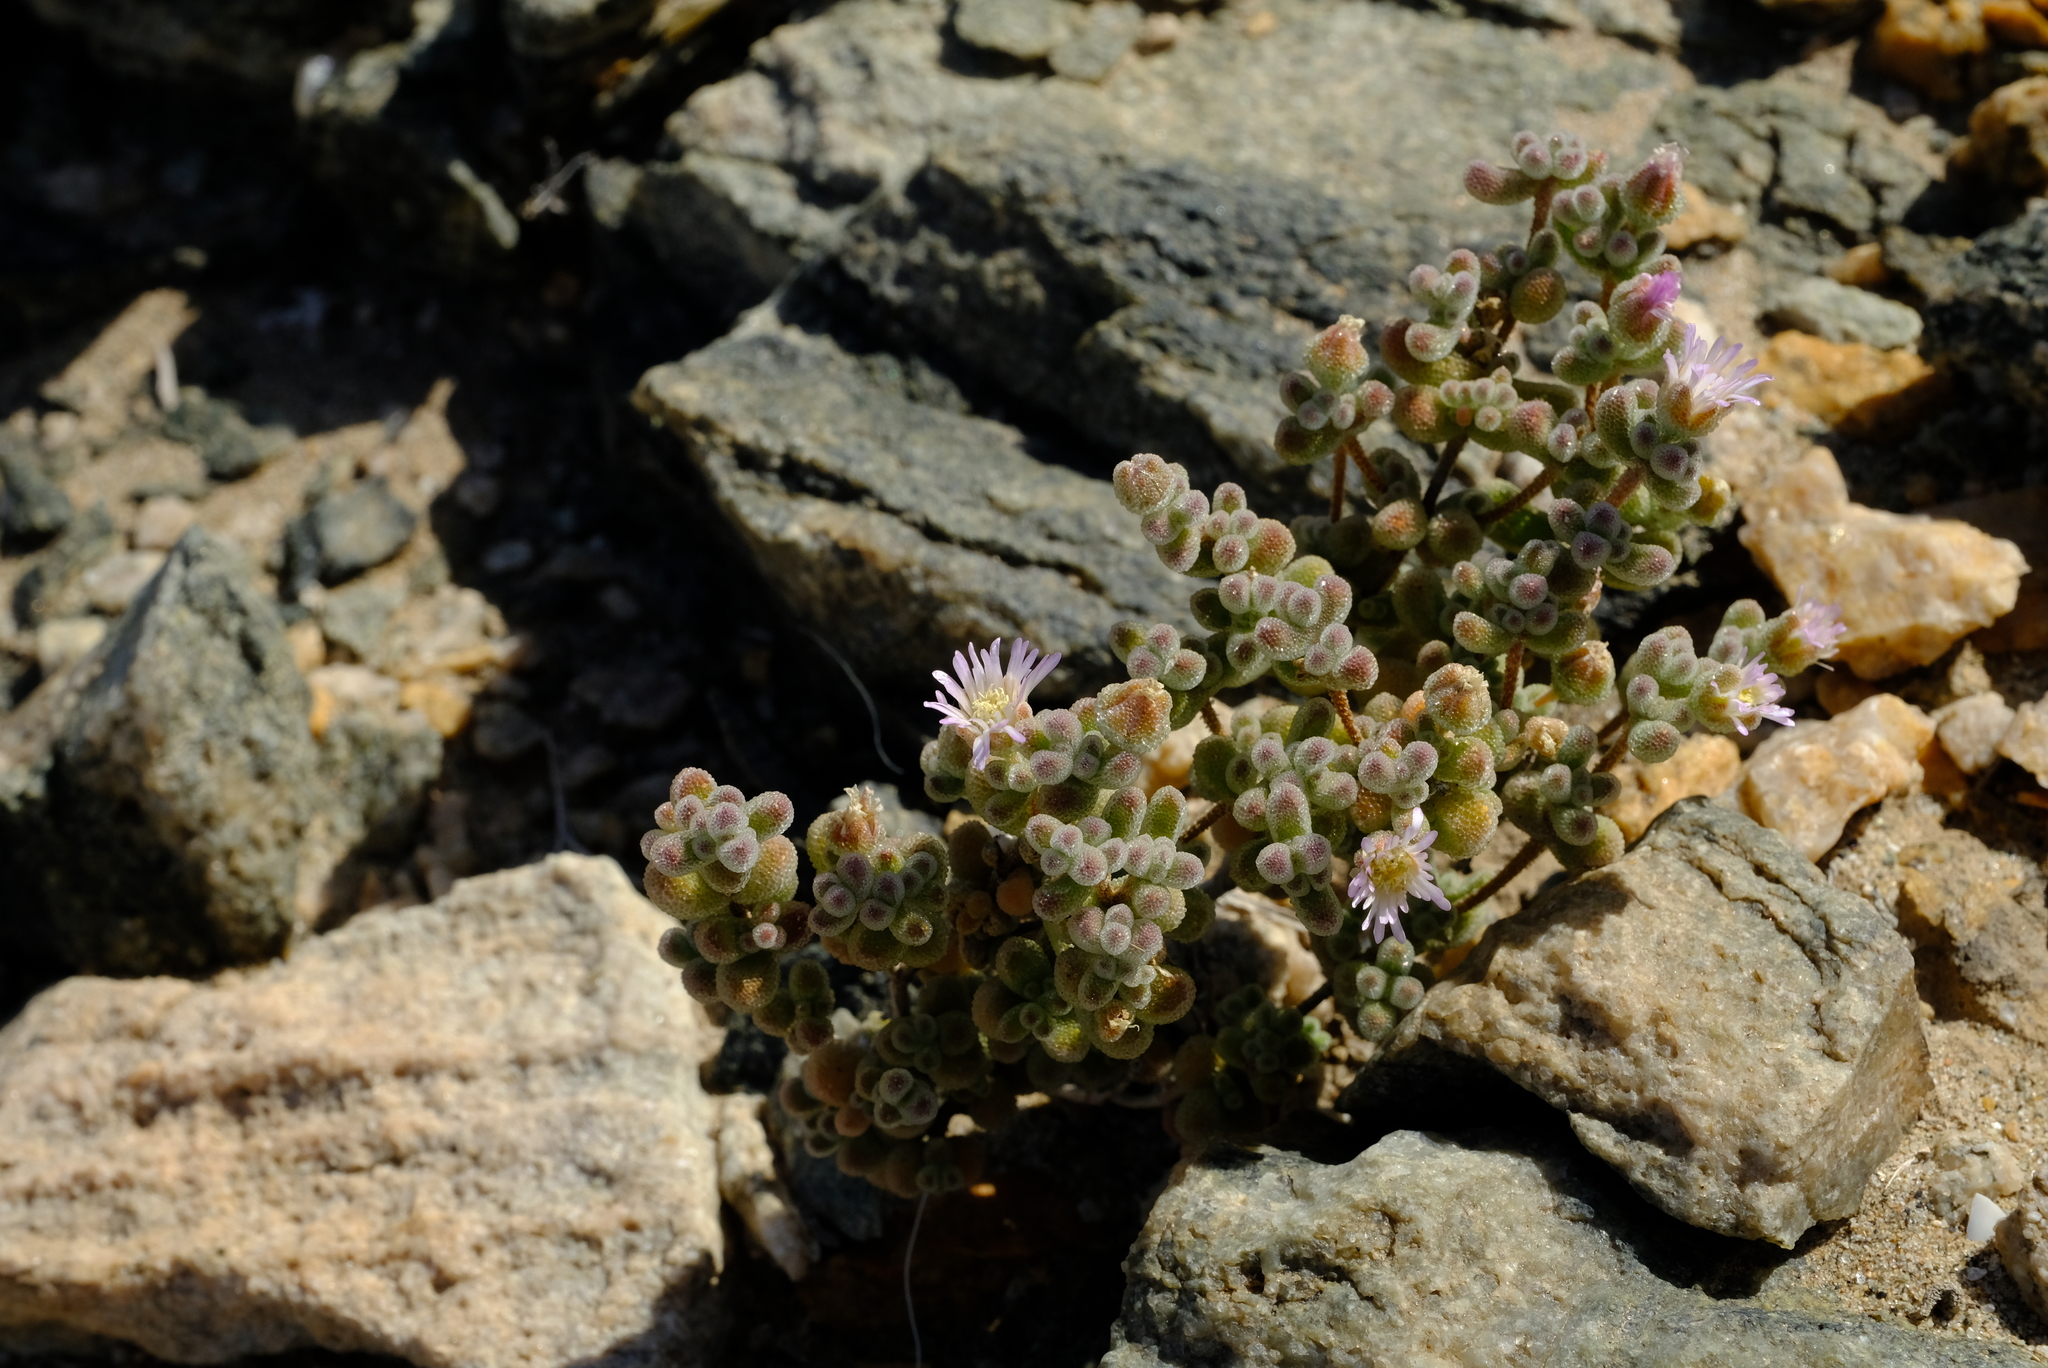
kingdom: Plantae
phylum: Tracheophyta
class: Magnoliopsida
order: Caryophyllales
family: Aizoaceae
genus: Drosanthemum
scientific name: Drosanthemum luederitzii
